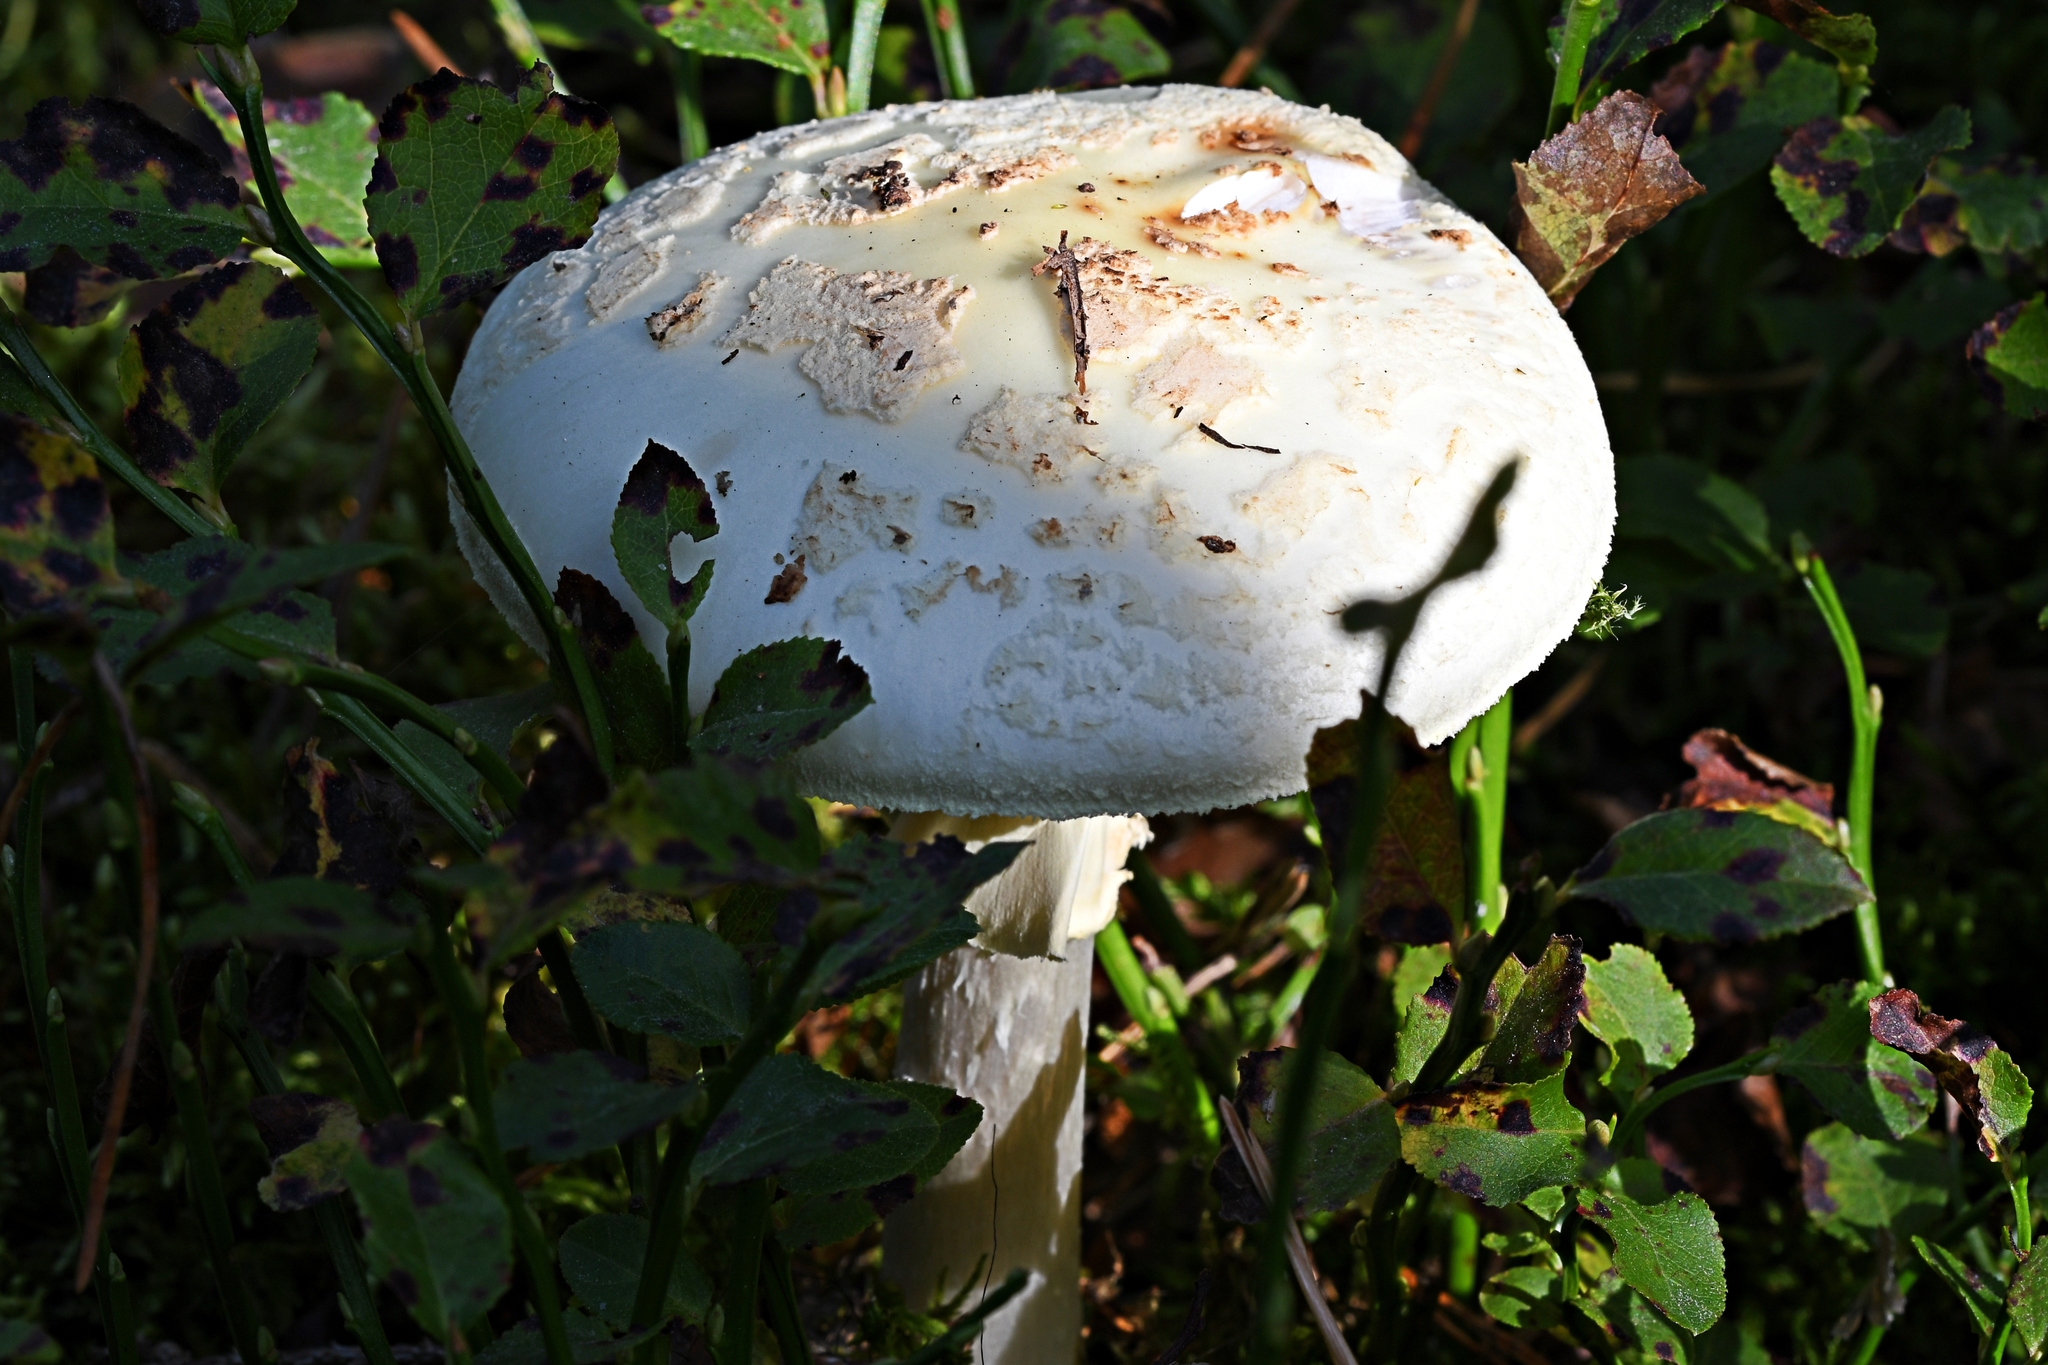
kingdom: Fungi
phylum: Basidiomycota
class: Agaricomycetes
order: Agaricales
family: Amanitaceae
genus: Amanita
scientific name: Amanita citrina
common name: False death-cap
